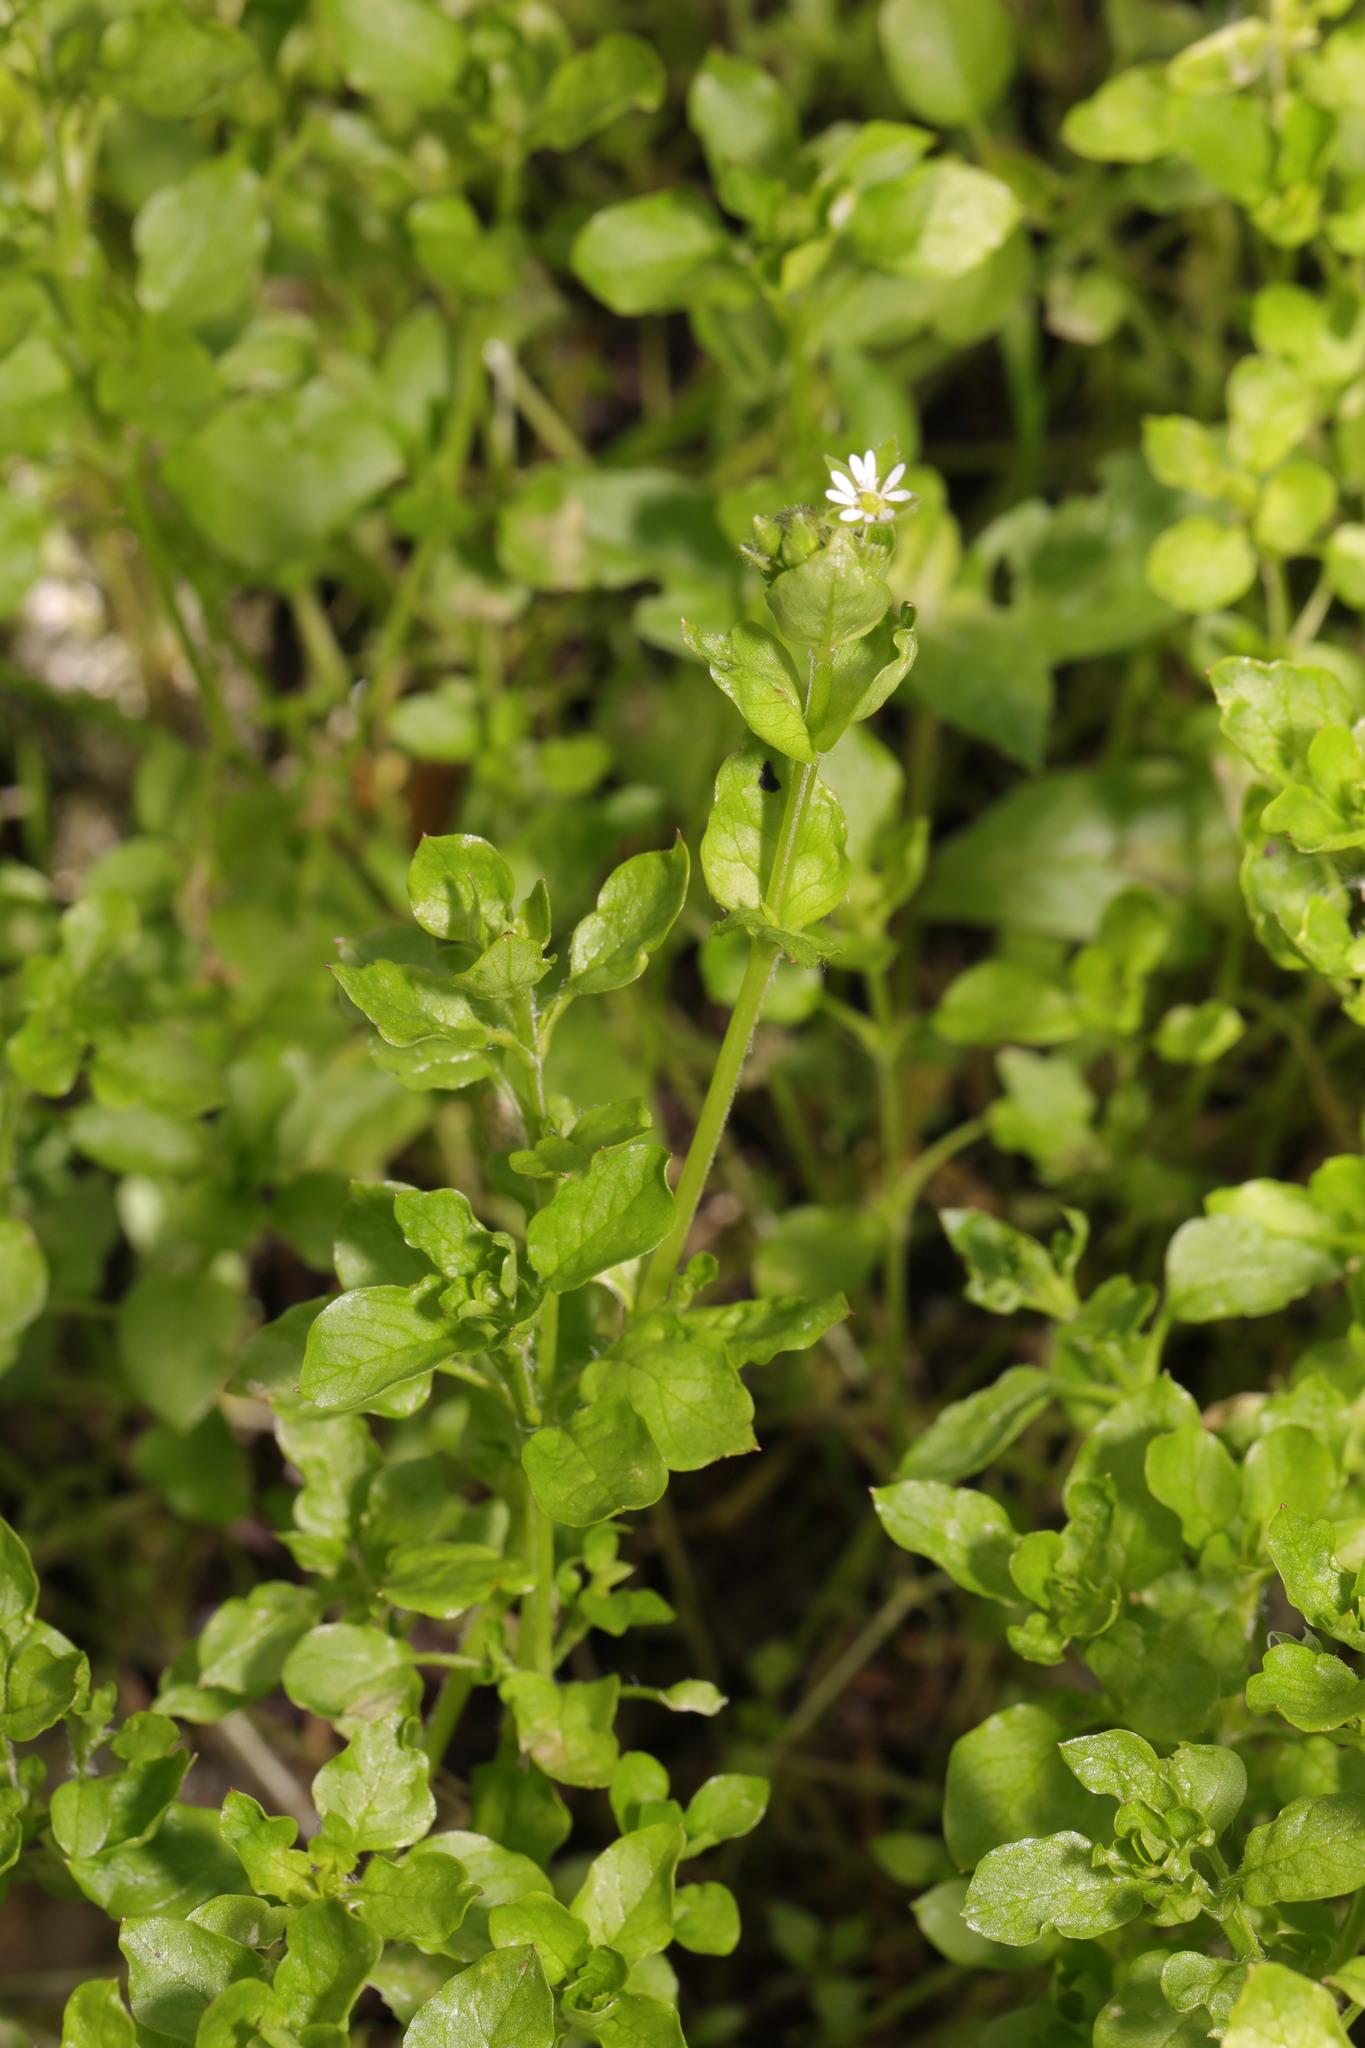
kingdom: Plantae
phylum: Tracheophyta
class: Magnoliopsida
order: Caryophyllales
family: Caryophyllaceae
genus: Stellaria
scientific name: Stellaria media
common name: Common chickweed
